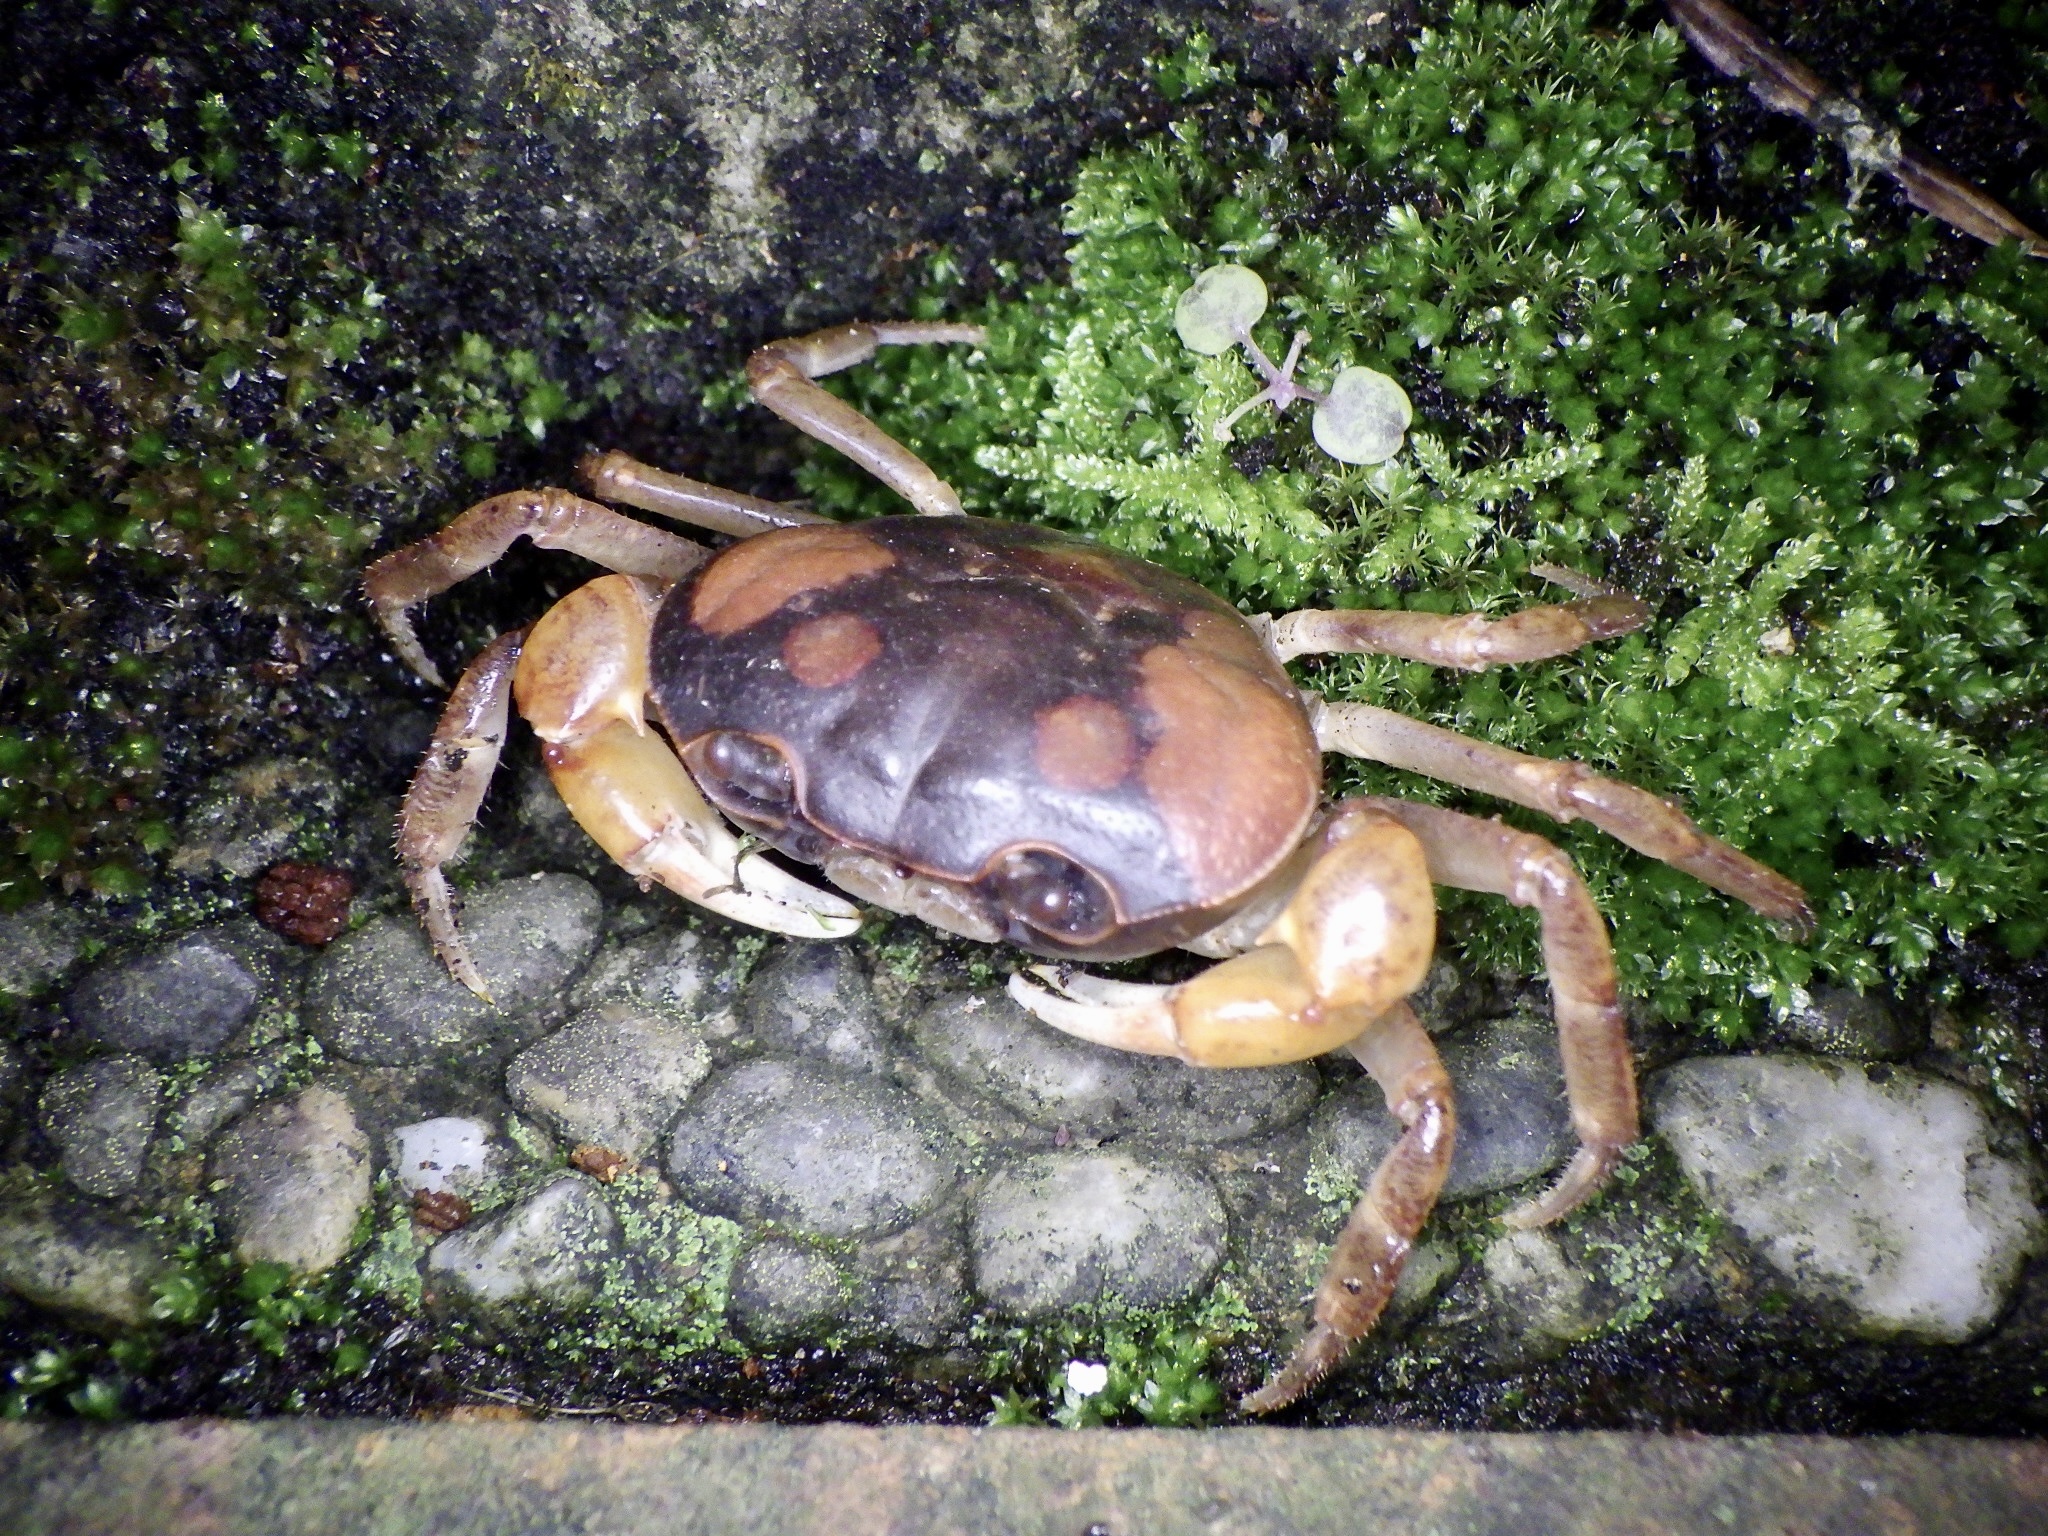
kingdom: Animalia
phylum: Arthropoda
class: Malacostraca
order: Decapoda
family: Potamidae
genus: Geothelphusa
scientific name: Geothelphusa dehaani
